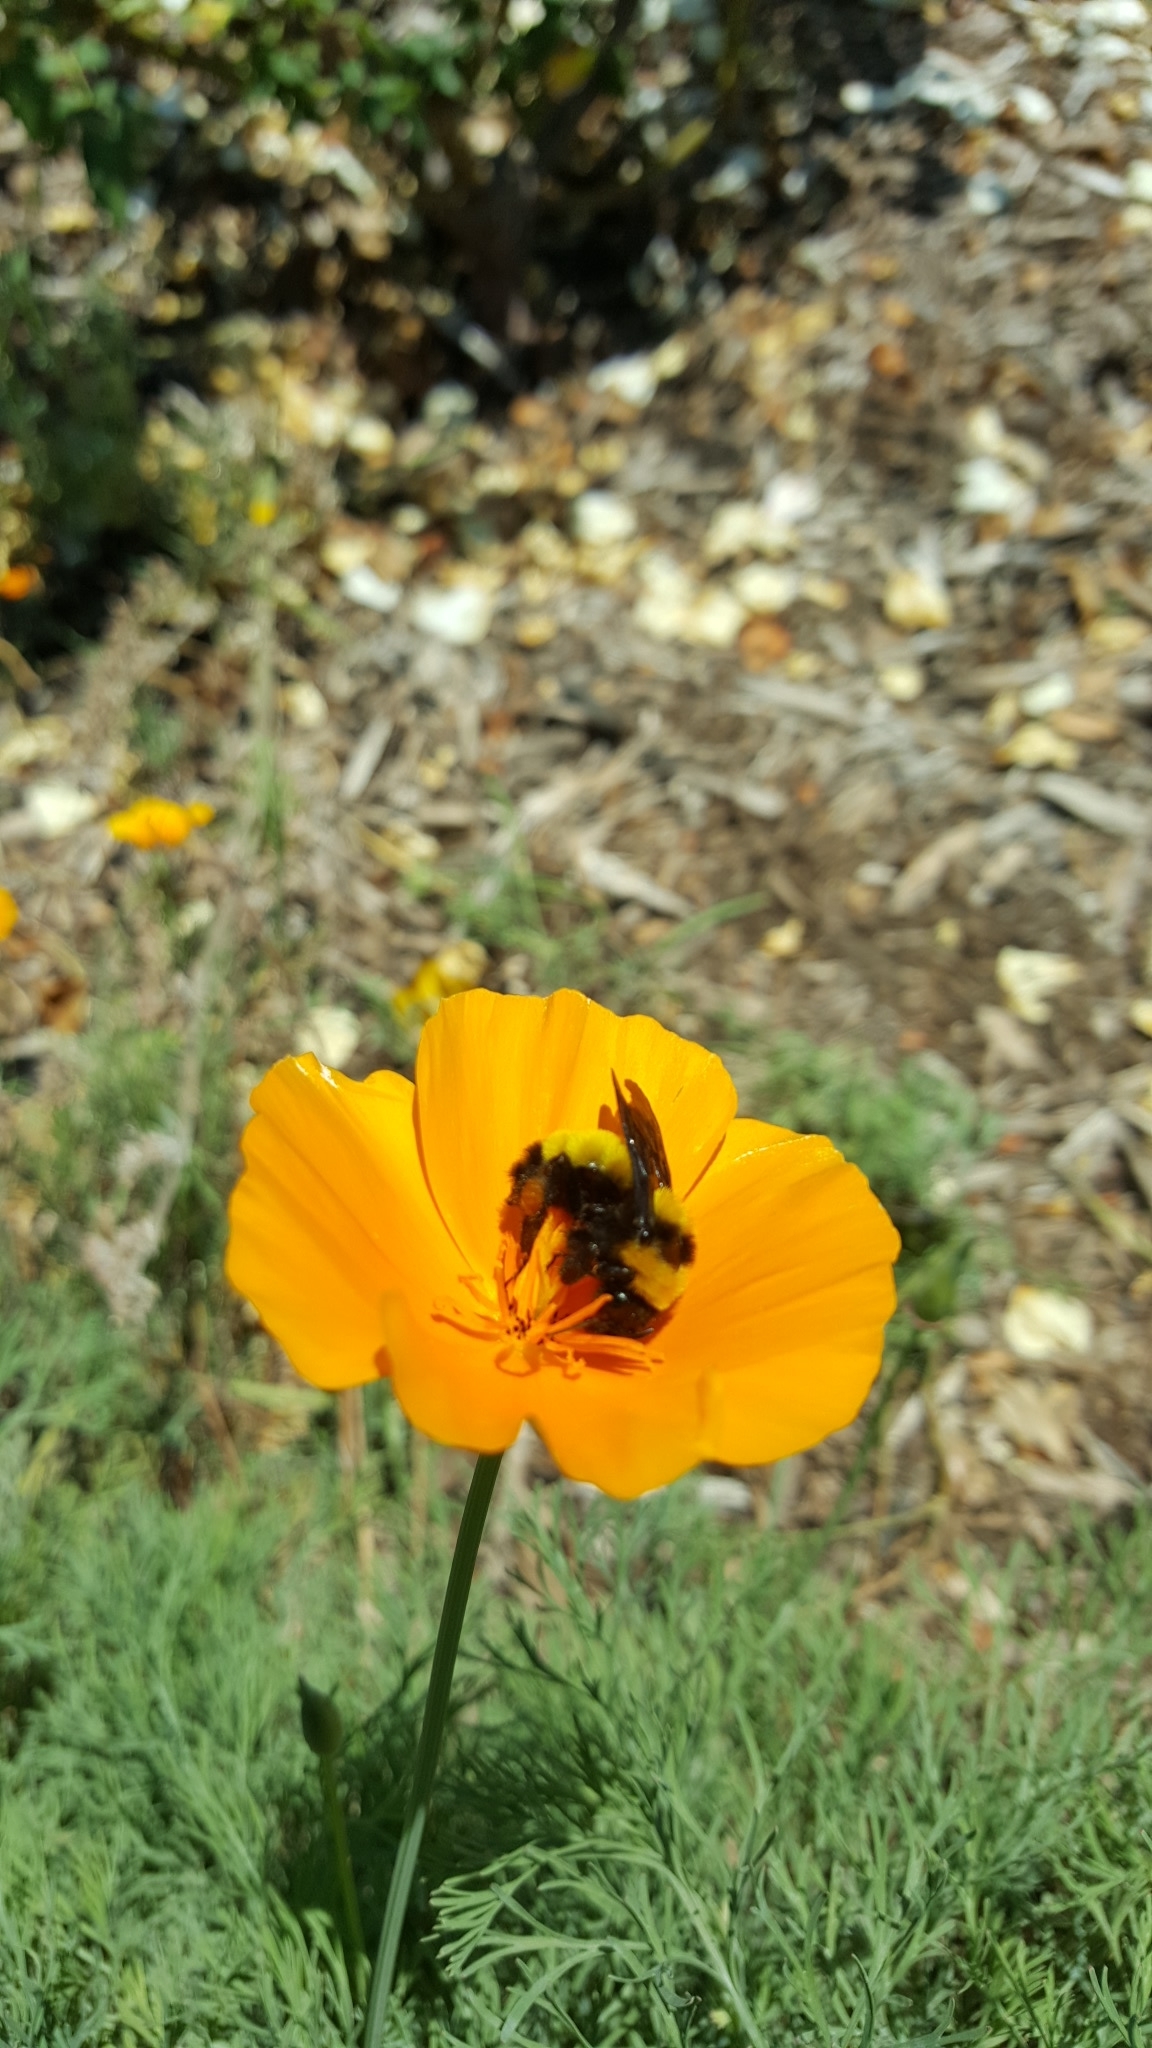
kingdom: Animalia
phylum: Arthropoda
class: Insecta
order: Hymenoptera
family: Apidae
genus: Bombus
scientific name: Bombus sonorus
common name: Sonoran bumble bee
